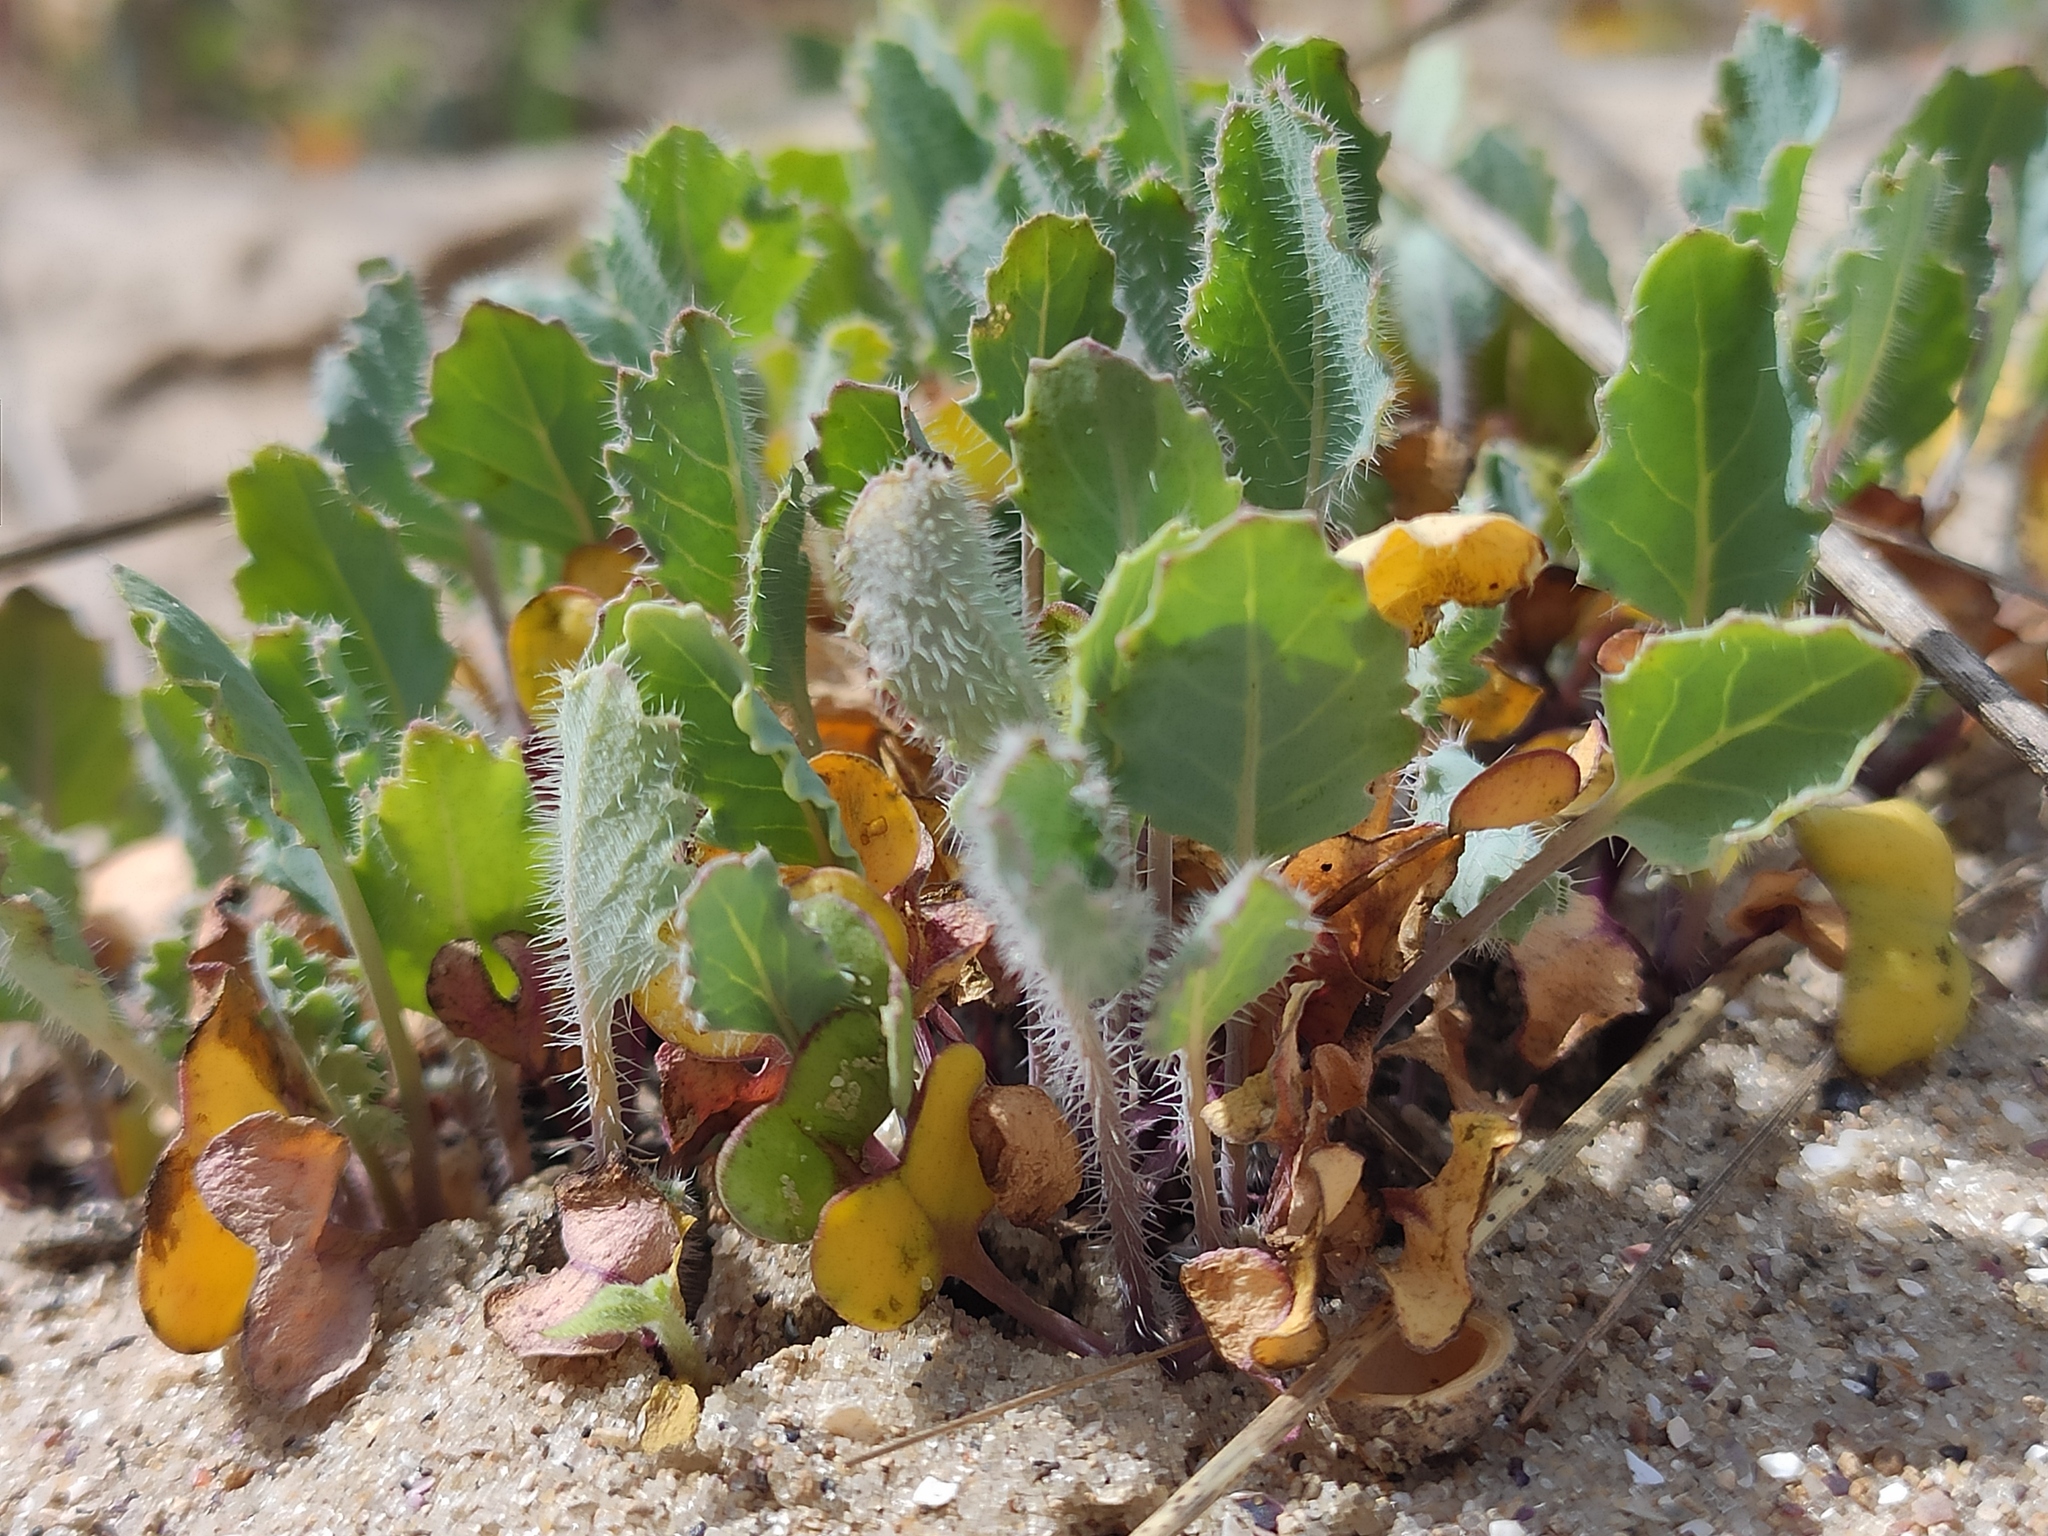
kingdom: Plantae
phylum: Tracheophyta
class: Magnoliopsida
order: Brassicales
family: Brassicaceae
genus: Crambe
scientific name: Crambe maritima
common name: Sea-kale
